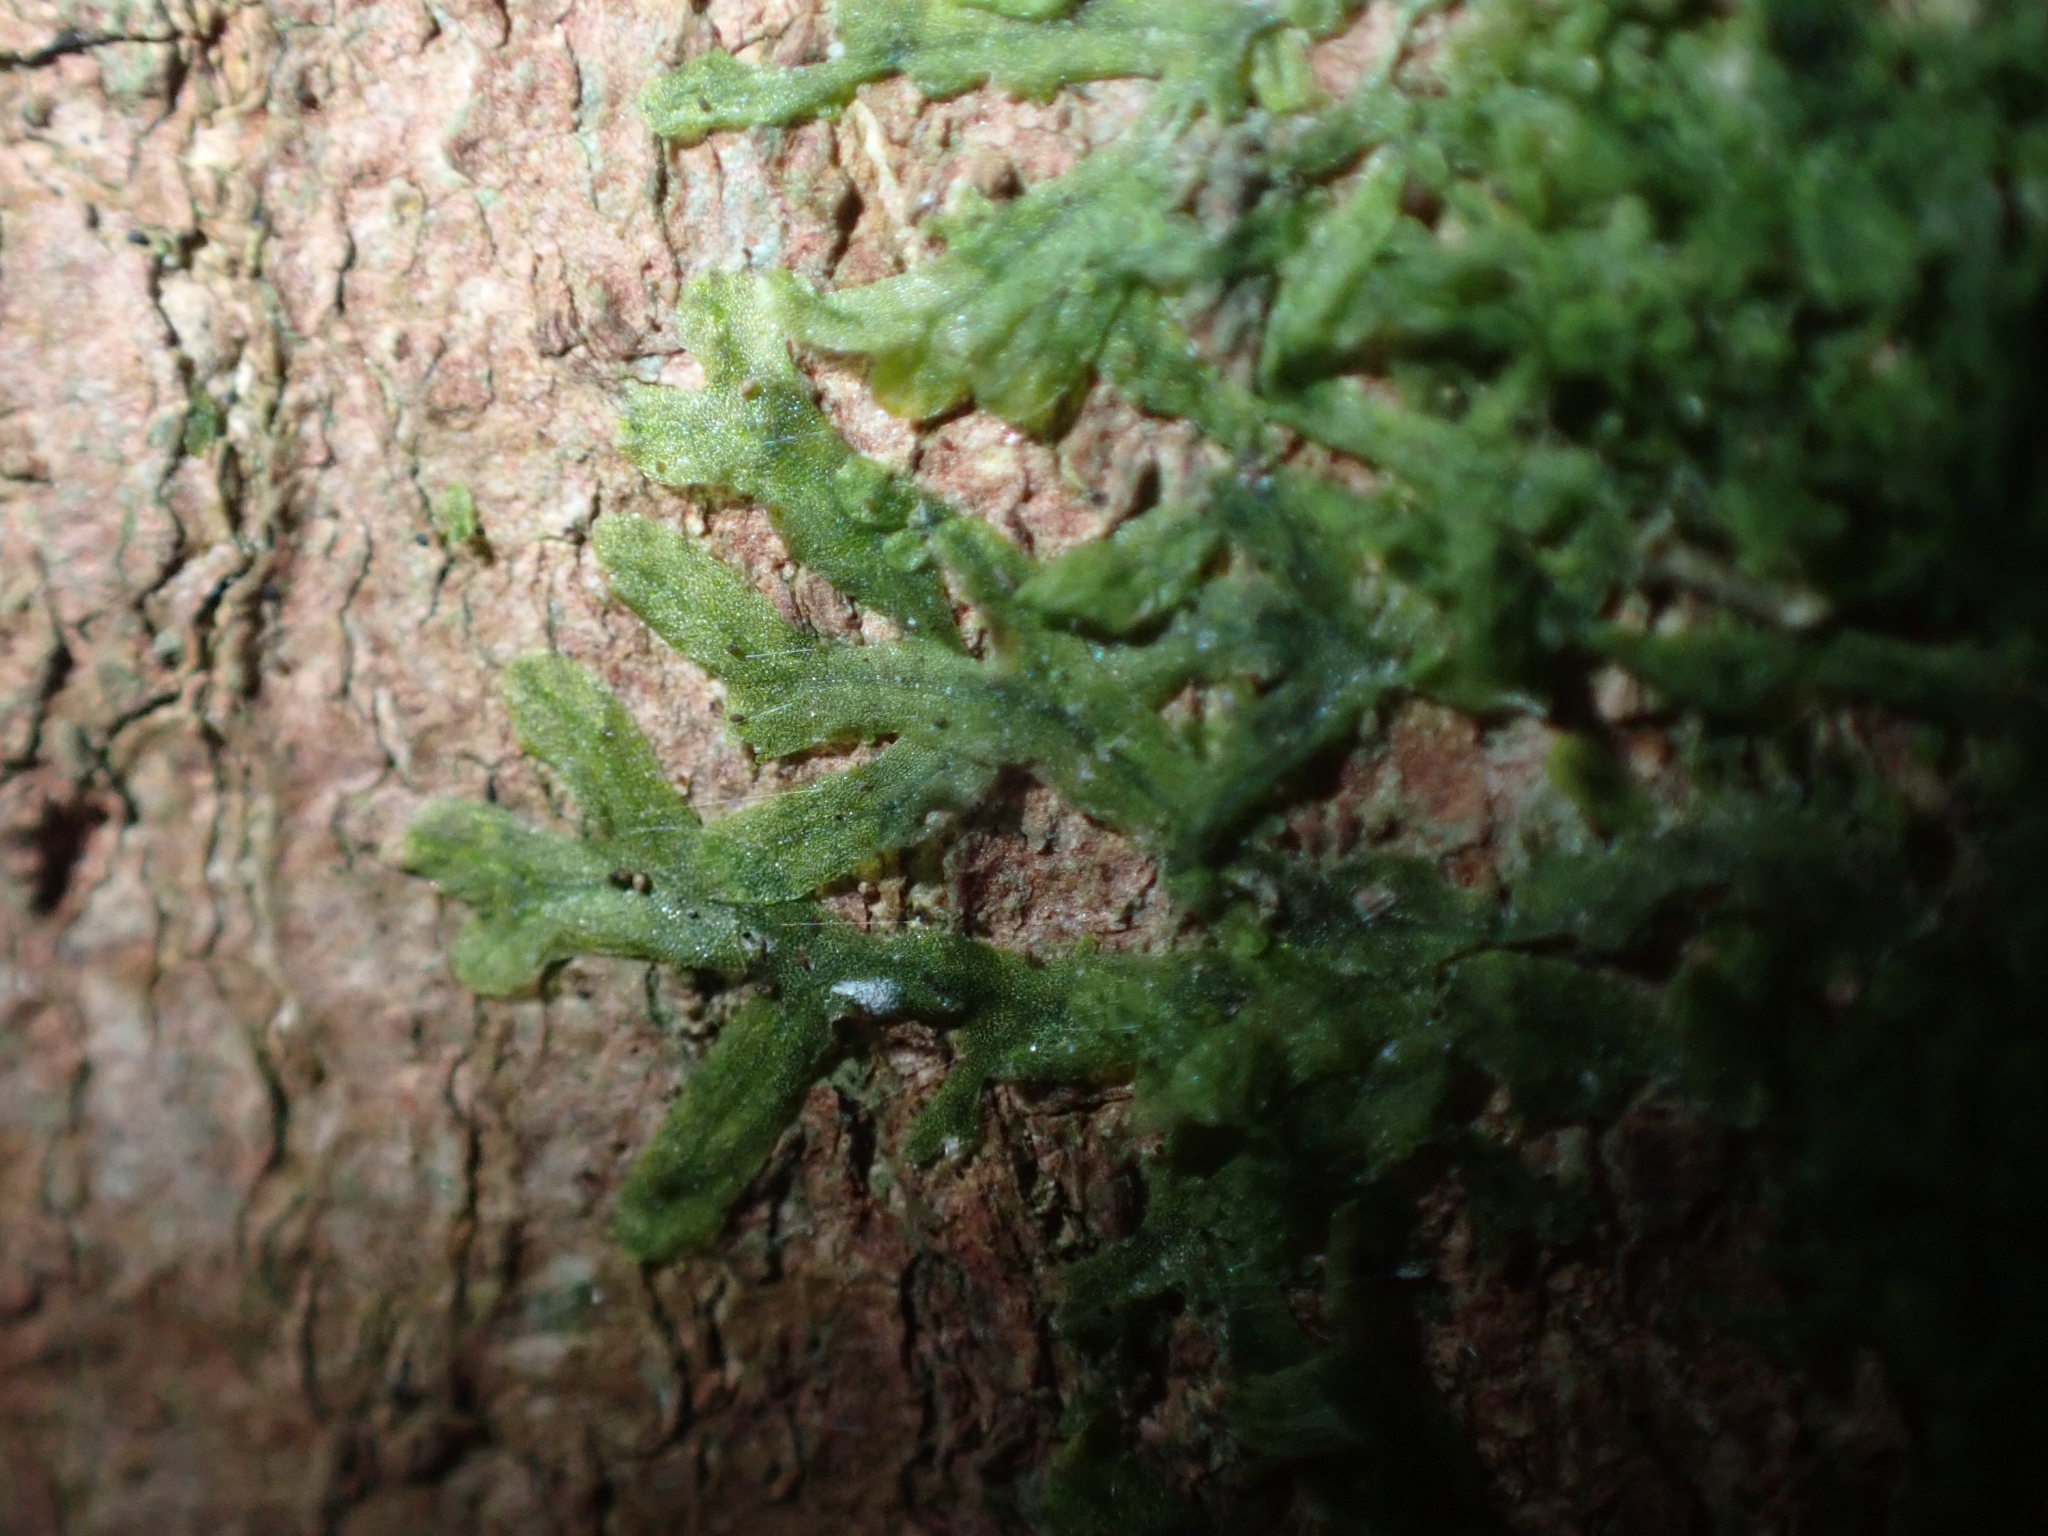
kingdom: Plantae
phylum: Marchantiophyta
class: Jungermanniopsida
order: Metzgeriales
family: Metzgeriaceae
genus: Metzgeria
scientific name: Metzgeria furcata
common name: Forked veilwort
